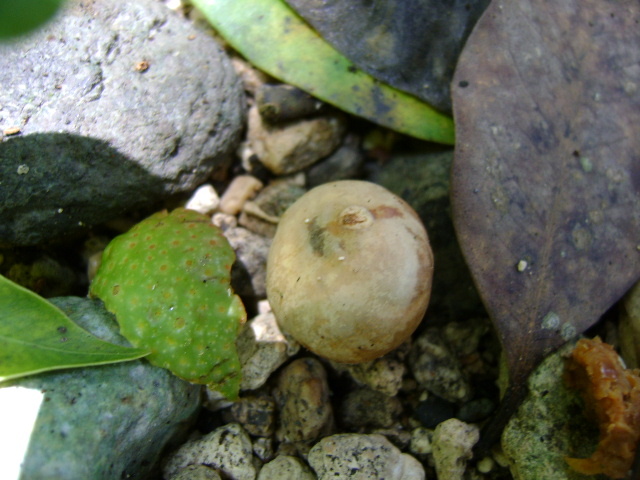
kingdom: Plantae
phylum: Tracheophyta
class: Magnoliopsida
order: Rosales
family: Moraceae
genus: Brosimum
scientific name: Brosimum alicastrum
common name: Breadnut
